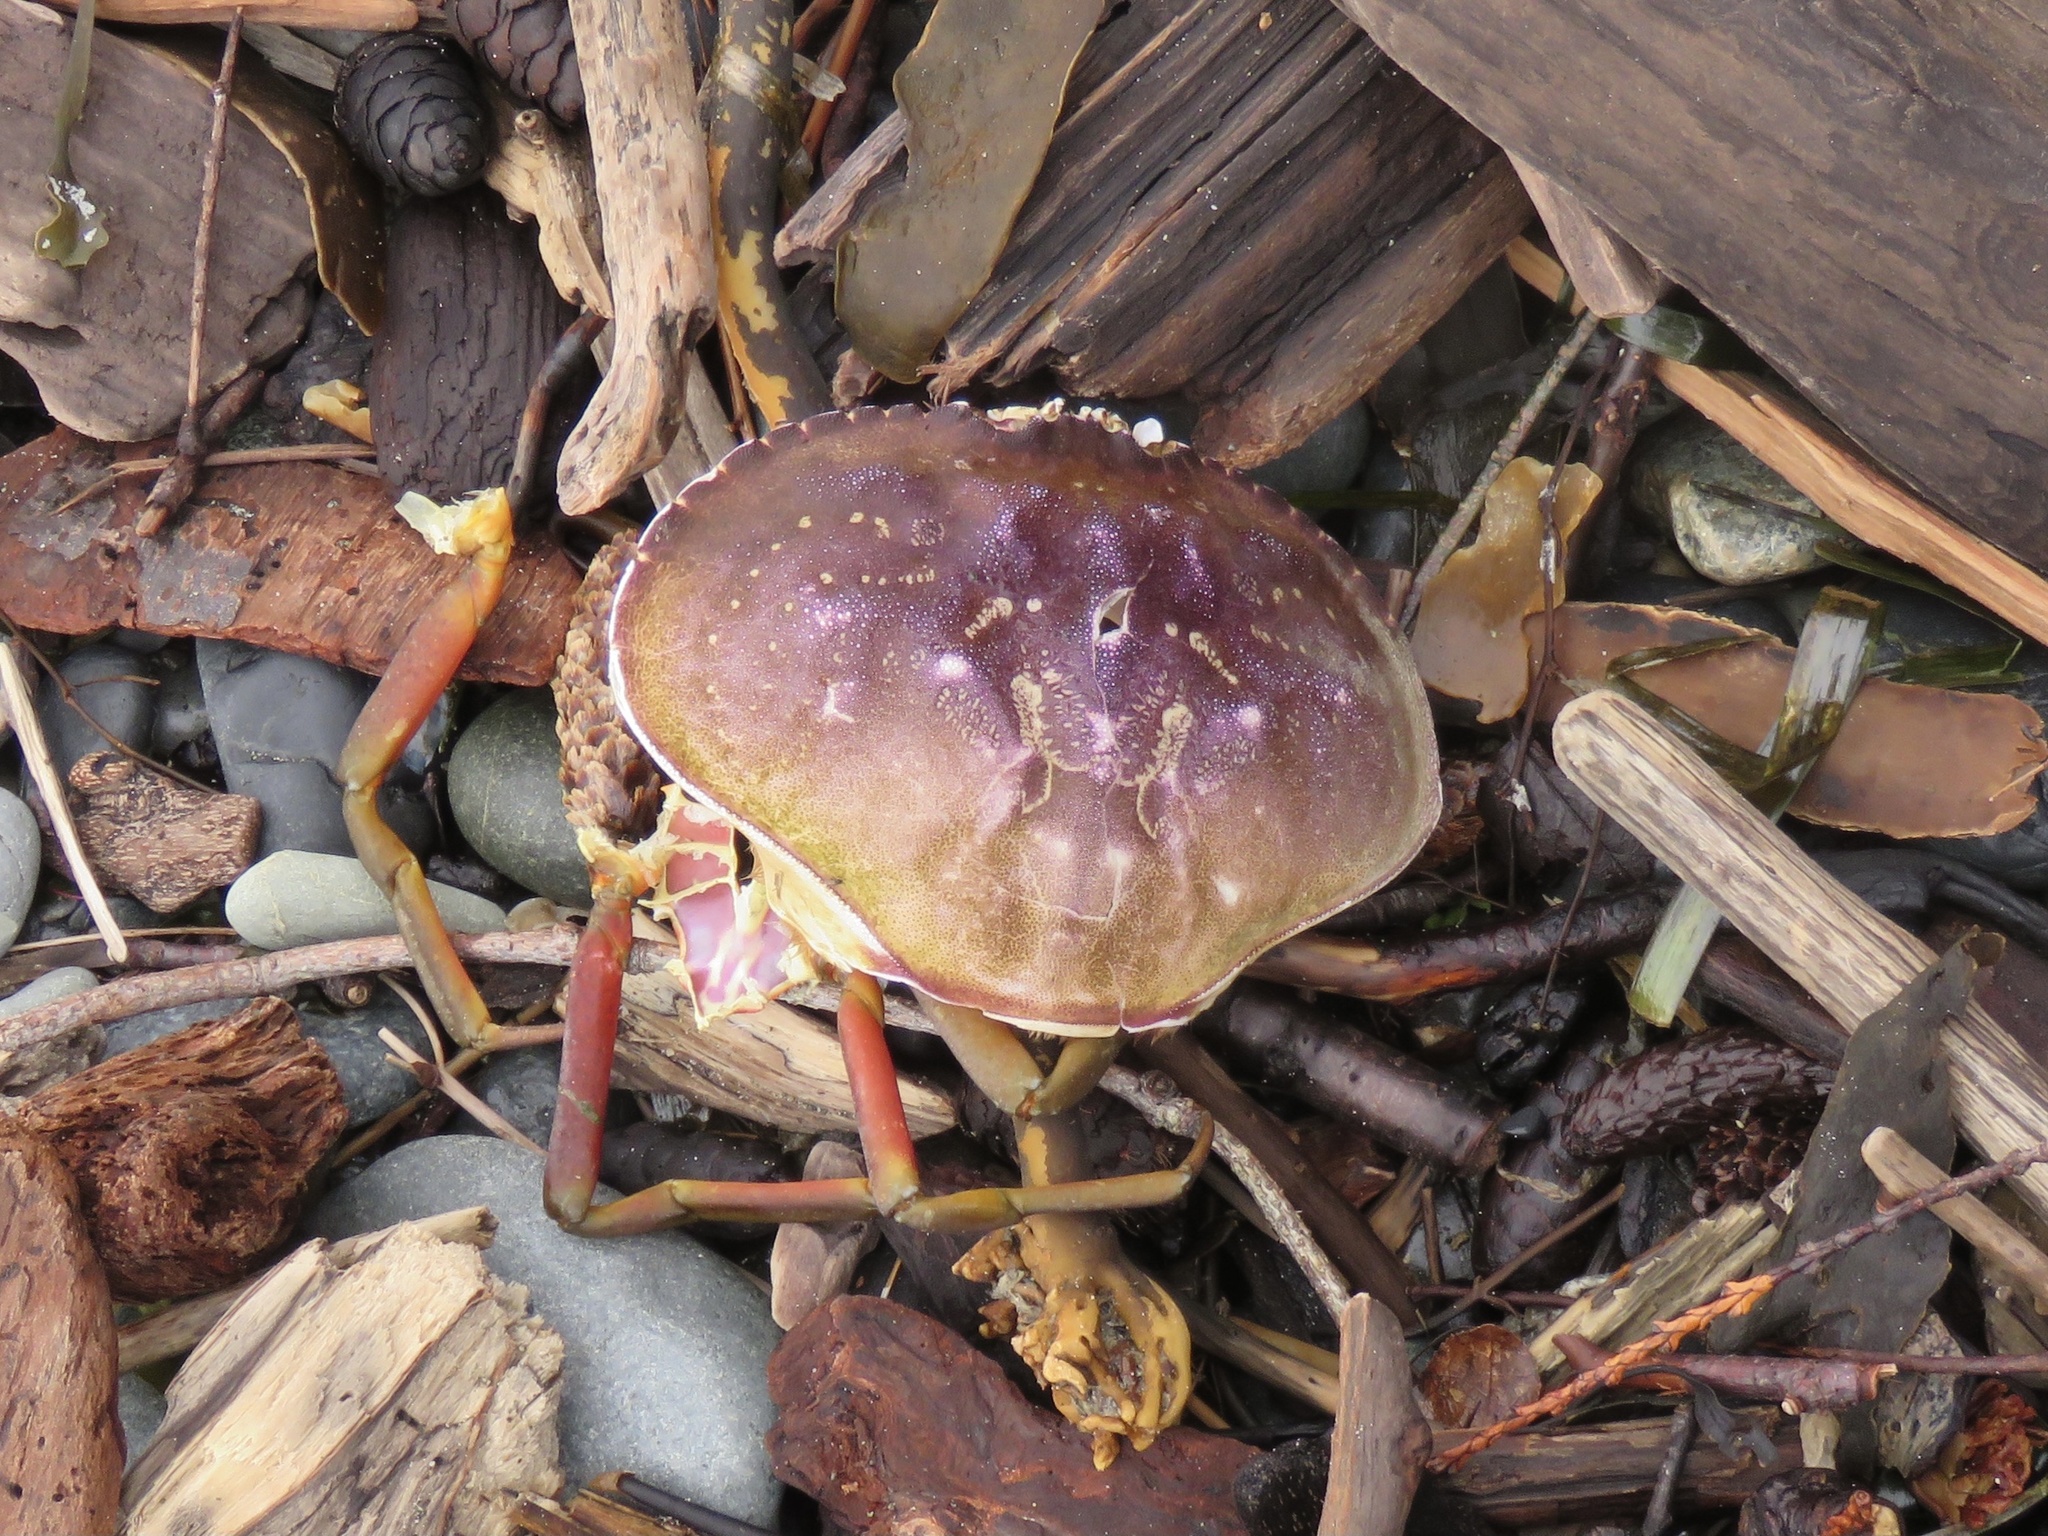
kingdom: Animalia
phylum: Arthropoda
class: Malacostraca
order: Decapoda
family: Cancridae
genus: Metacarcinus
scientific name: Metacarcinus magister
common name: Californian crab
